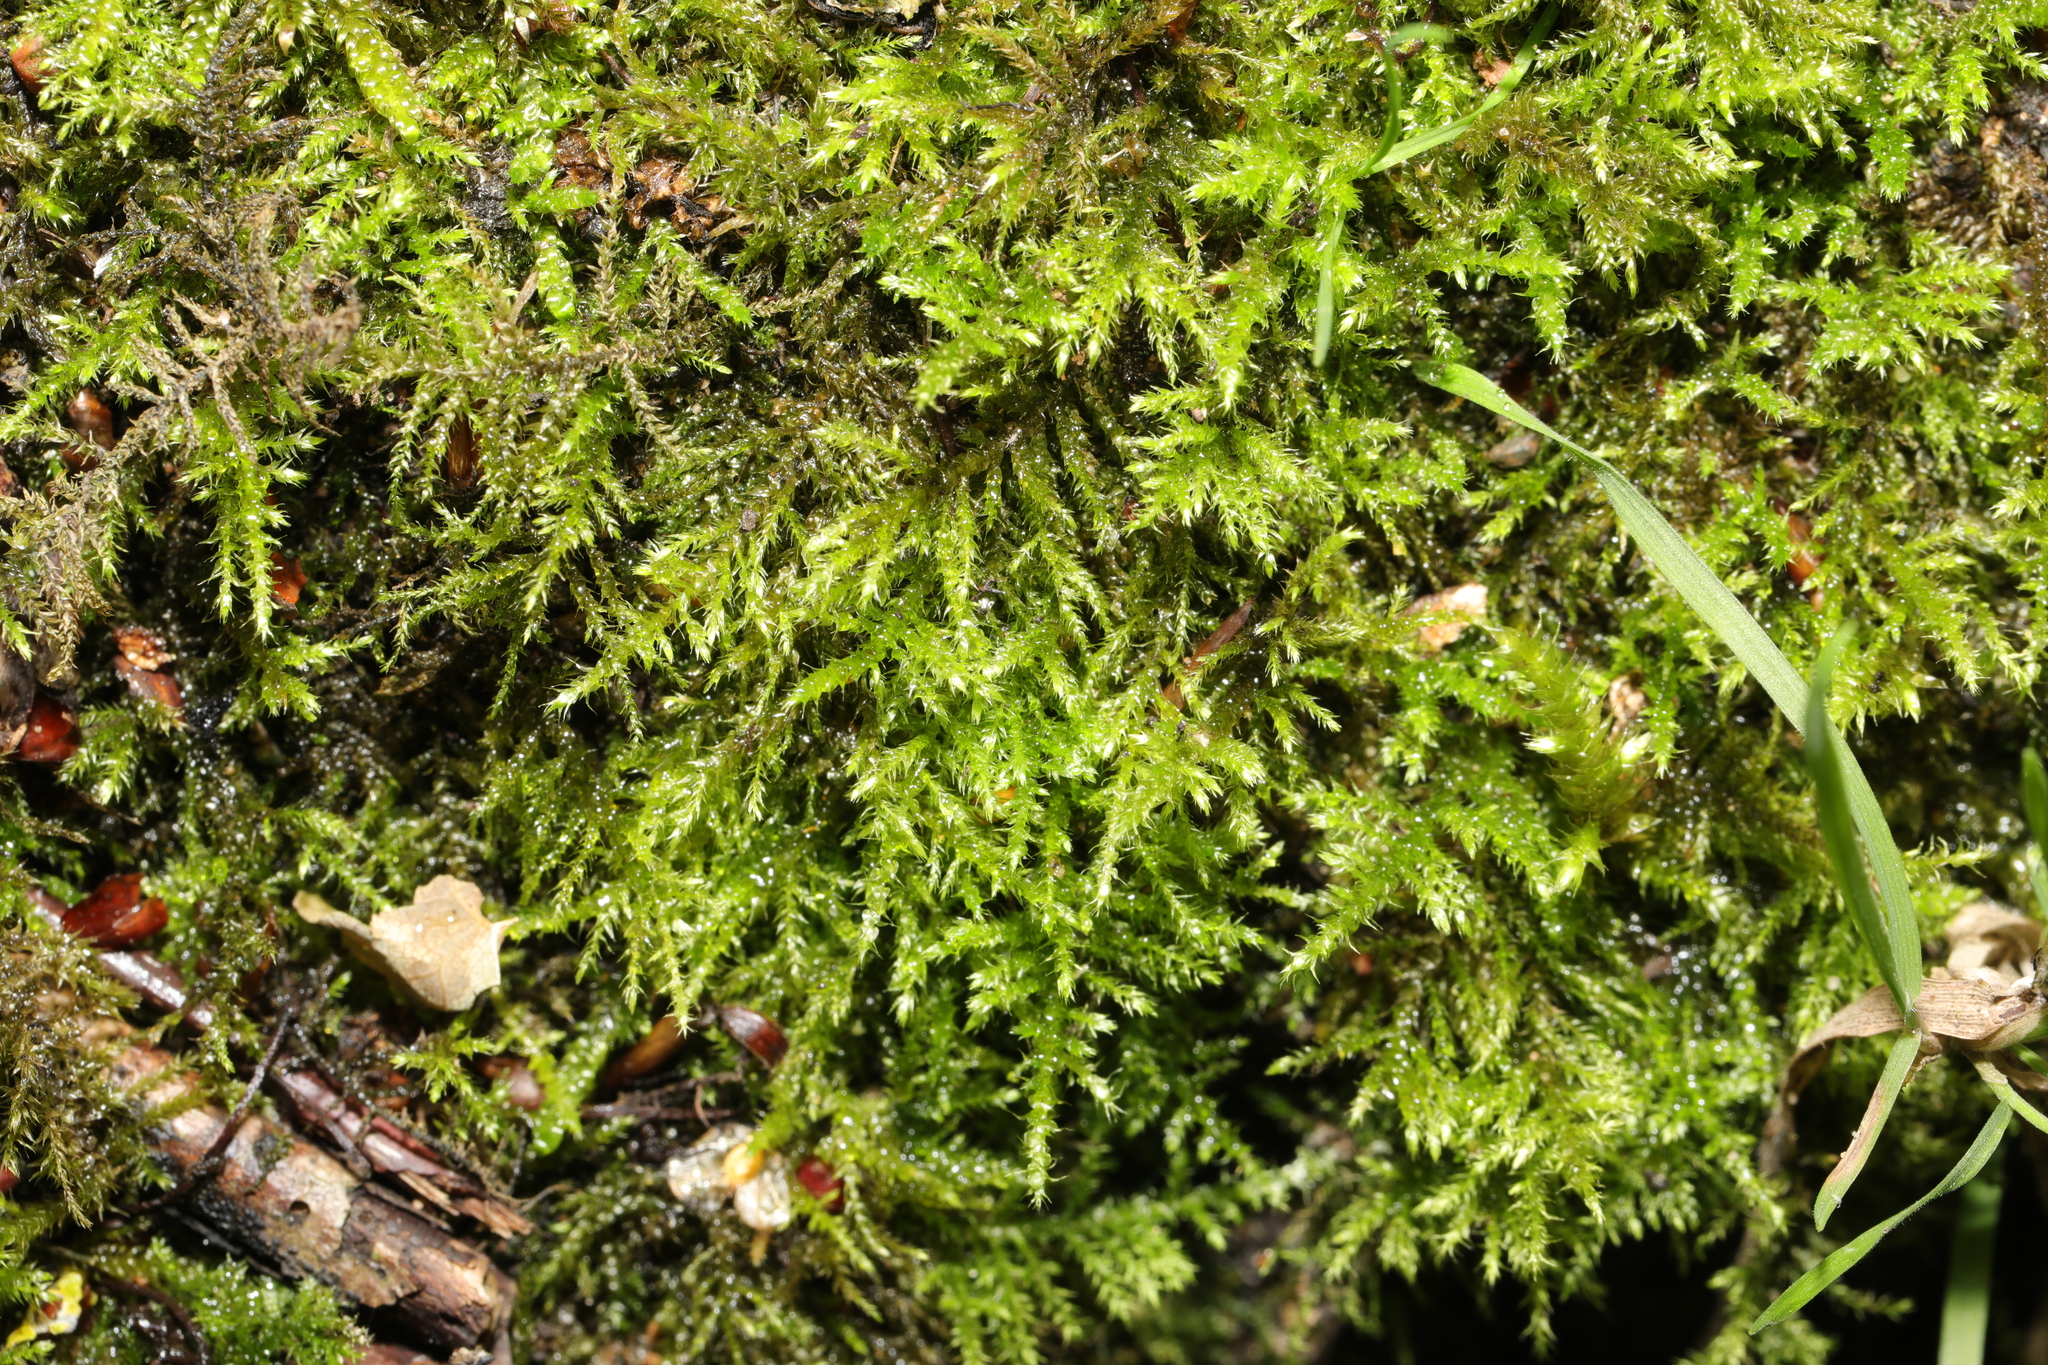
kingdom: Plantae
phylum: Bryophyta
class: Bryopsida
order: Hypnales
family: Brachytheciaceae
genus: Kindbergia
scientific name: Kindbergia praelonga
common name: Slender beaked moss
